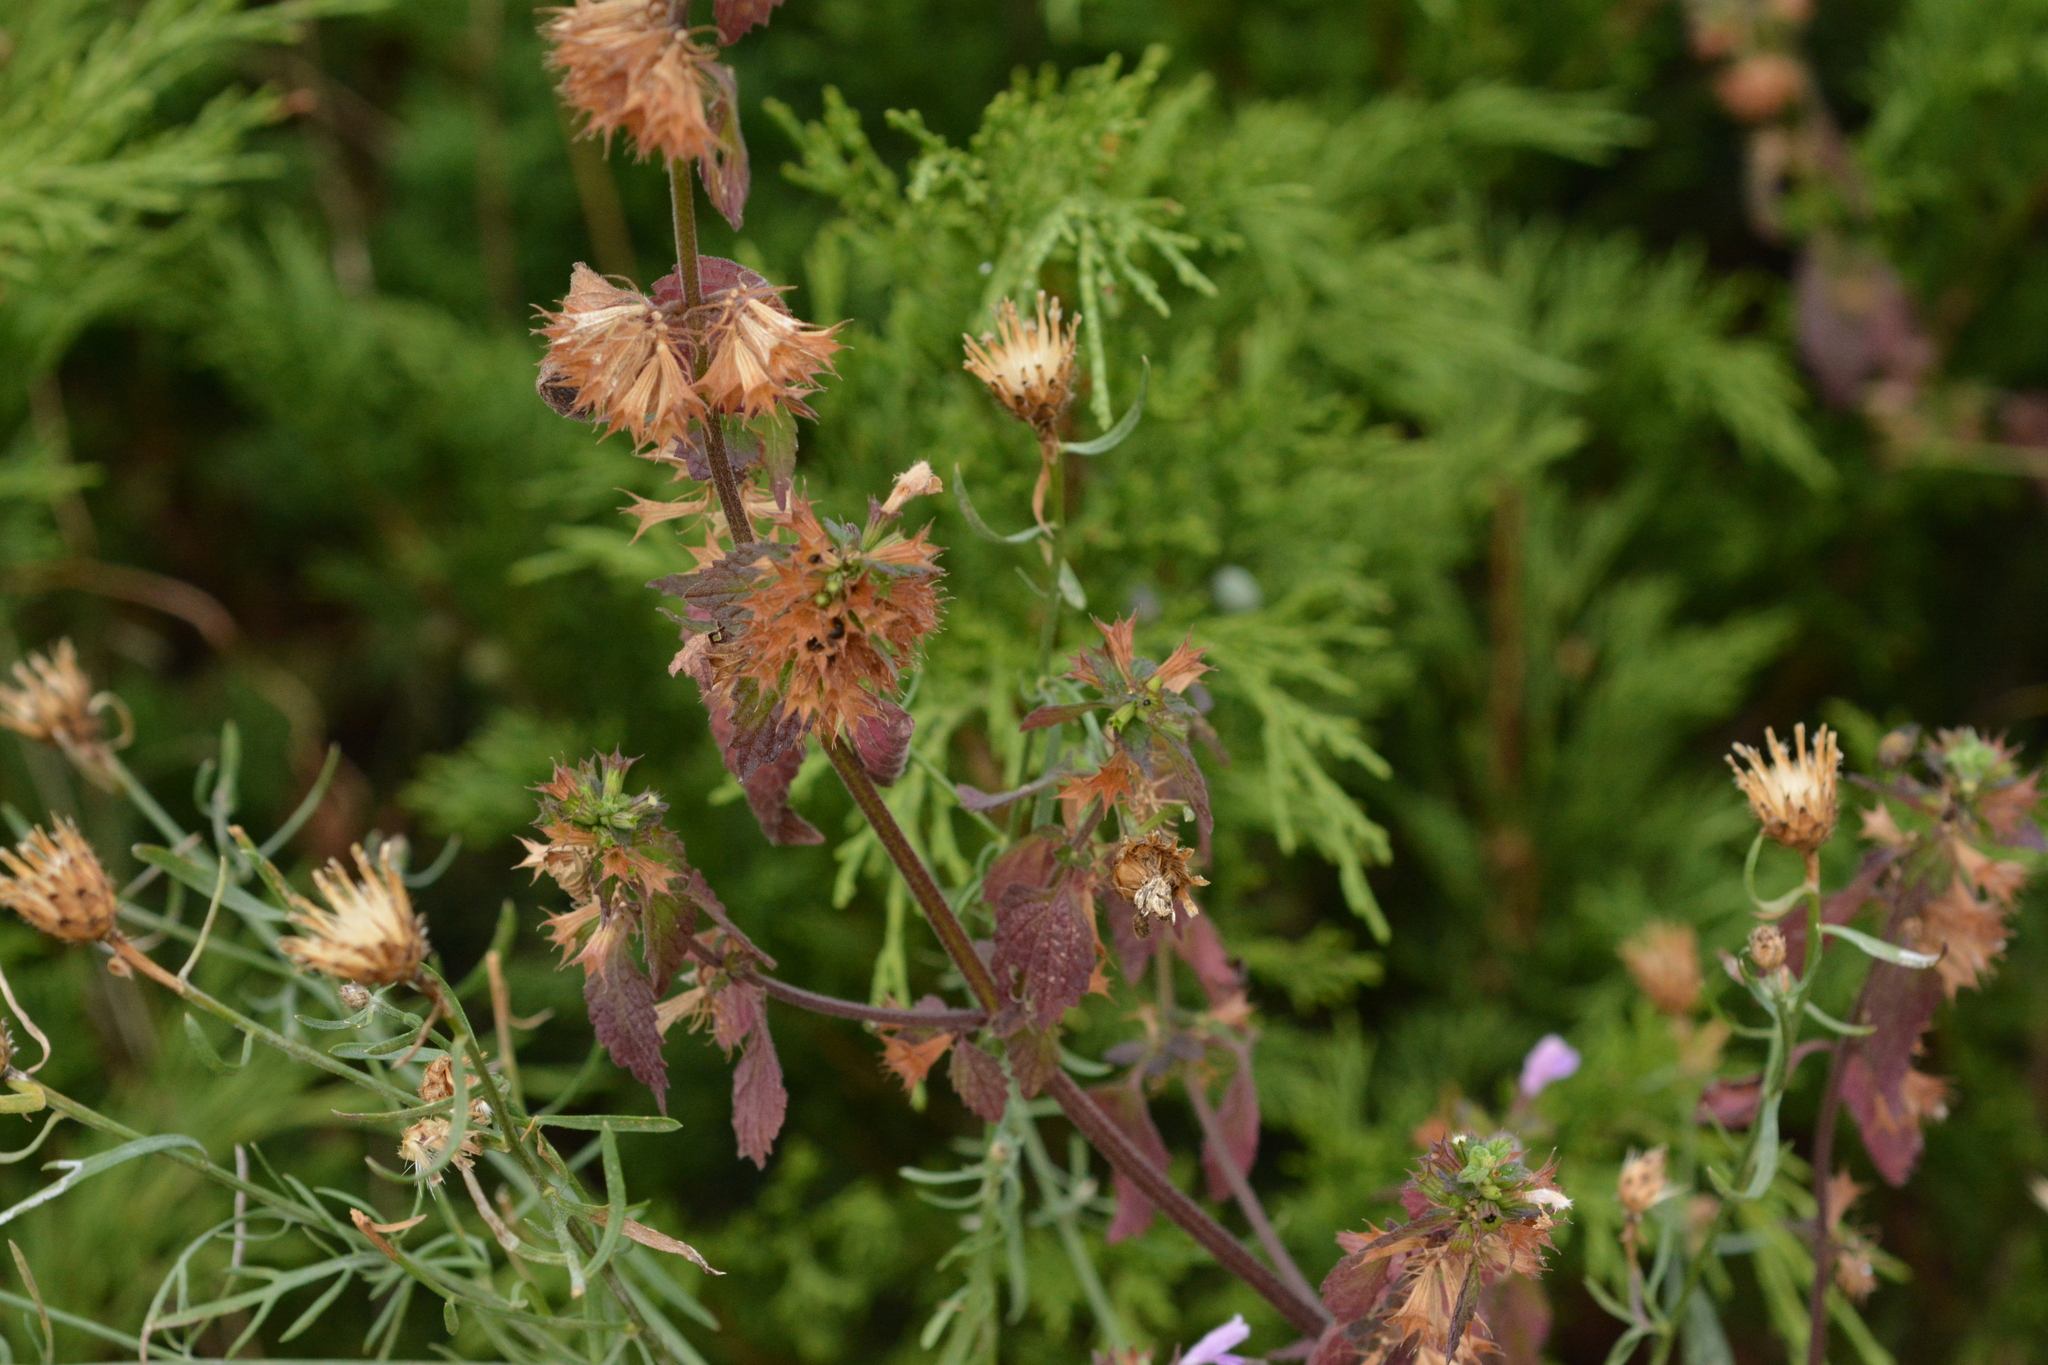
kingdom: Plantae
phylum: Tracheophyta
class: Magnoliopsida
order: Lamiales
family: Lamiaceae
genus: Ballota
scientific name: Ballota nigra
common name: Black horehound
